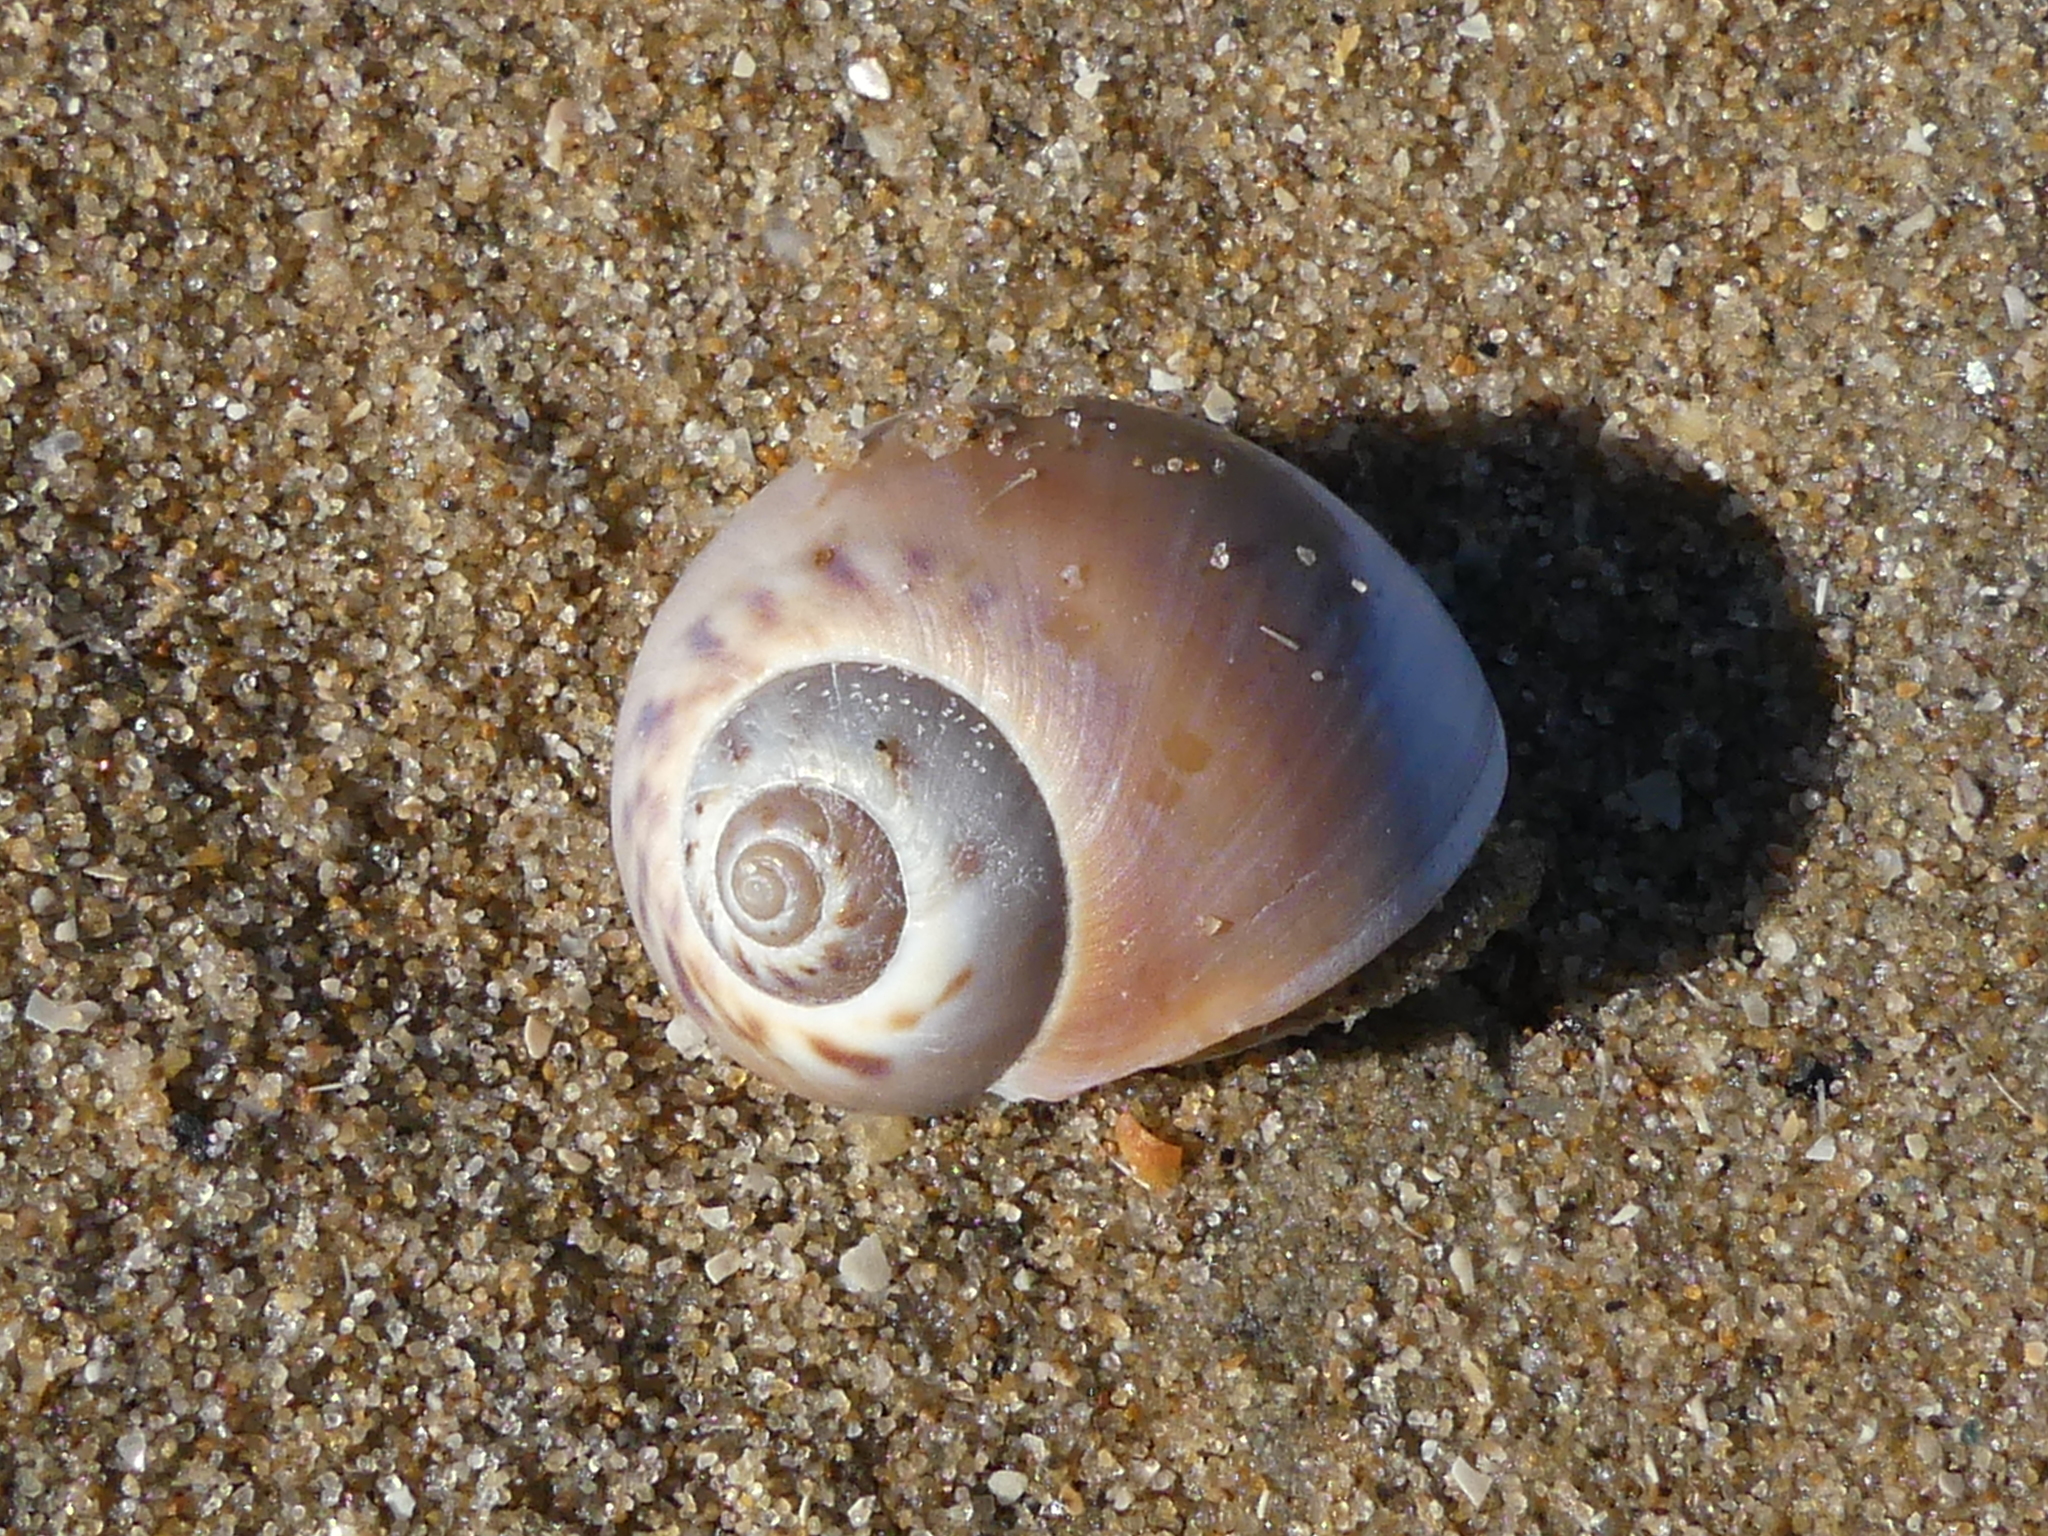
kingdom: Animalia
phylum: Mollusca
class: Gastropoda
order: Littorinimorpha
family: Naticidae
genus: Euspira
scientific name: Euspira catena
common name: Necklace shell
